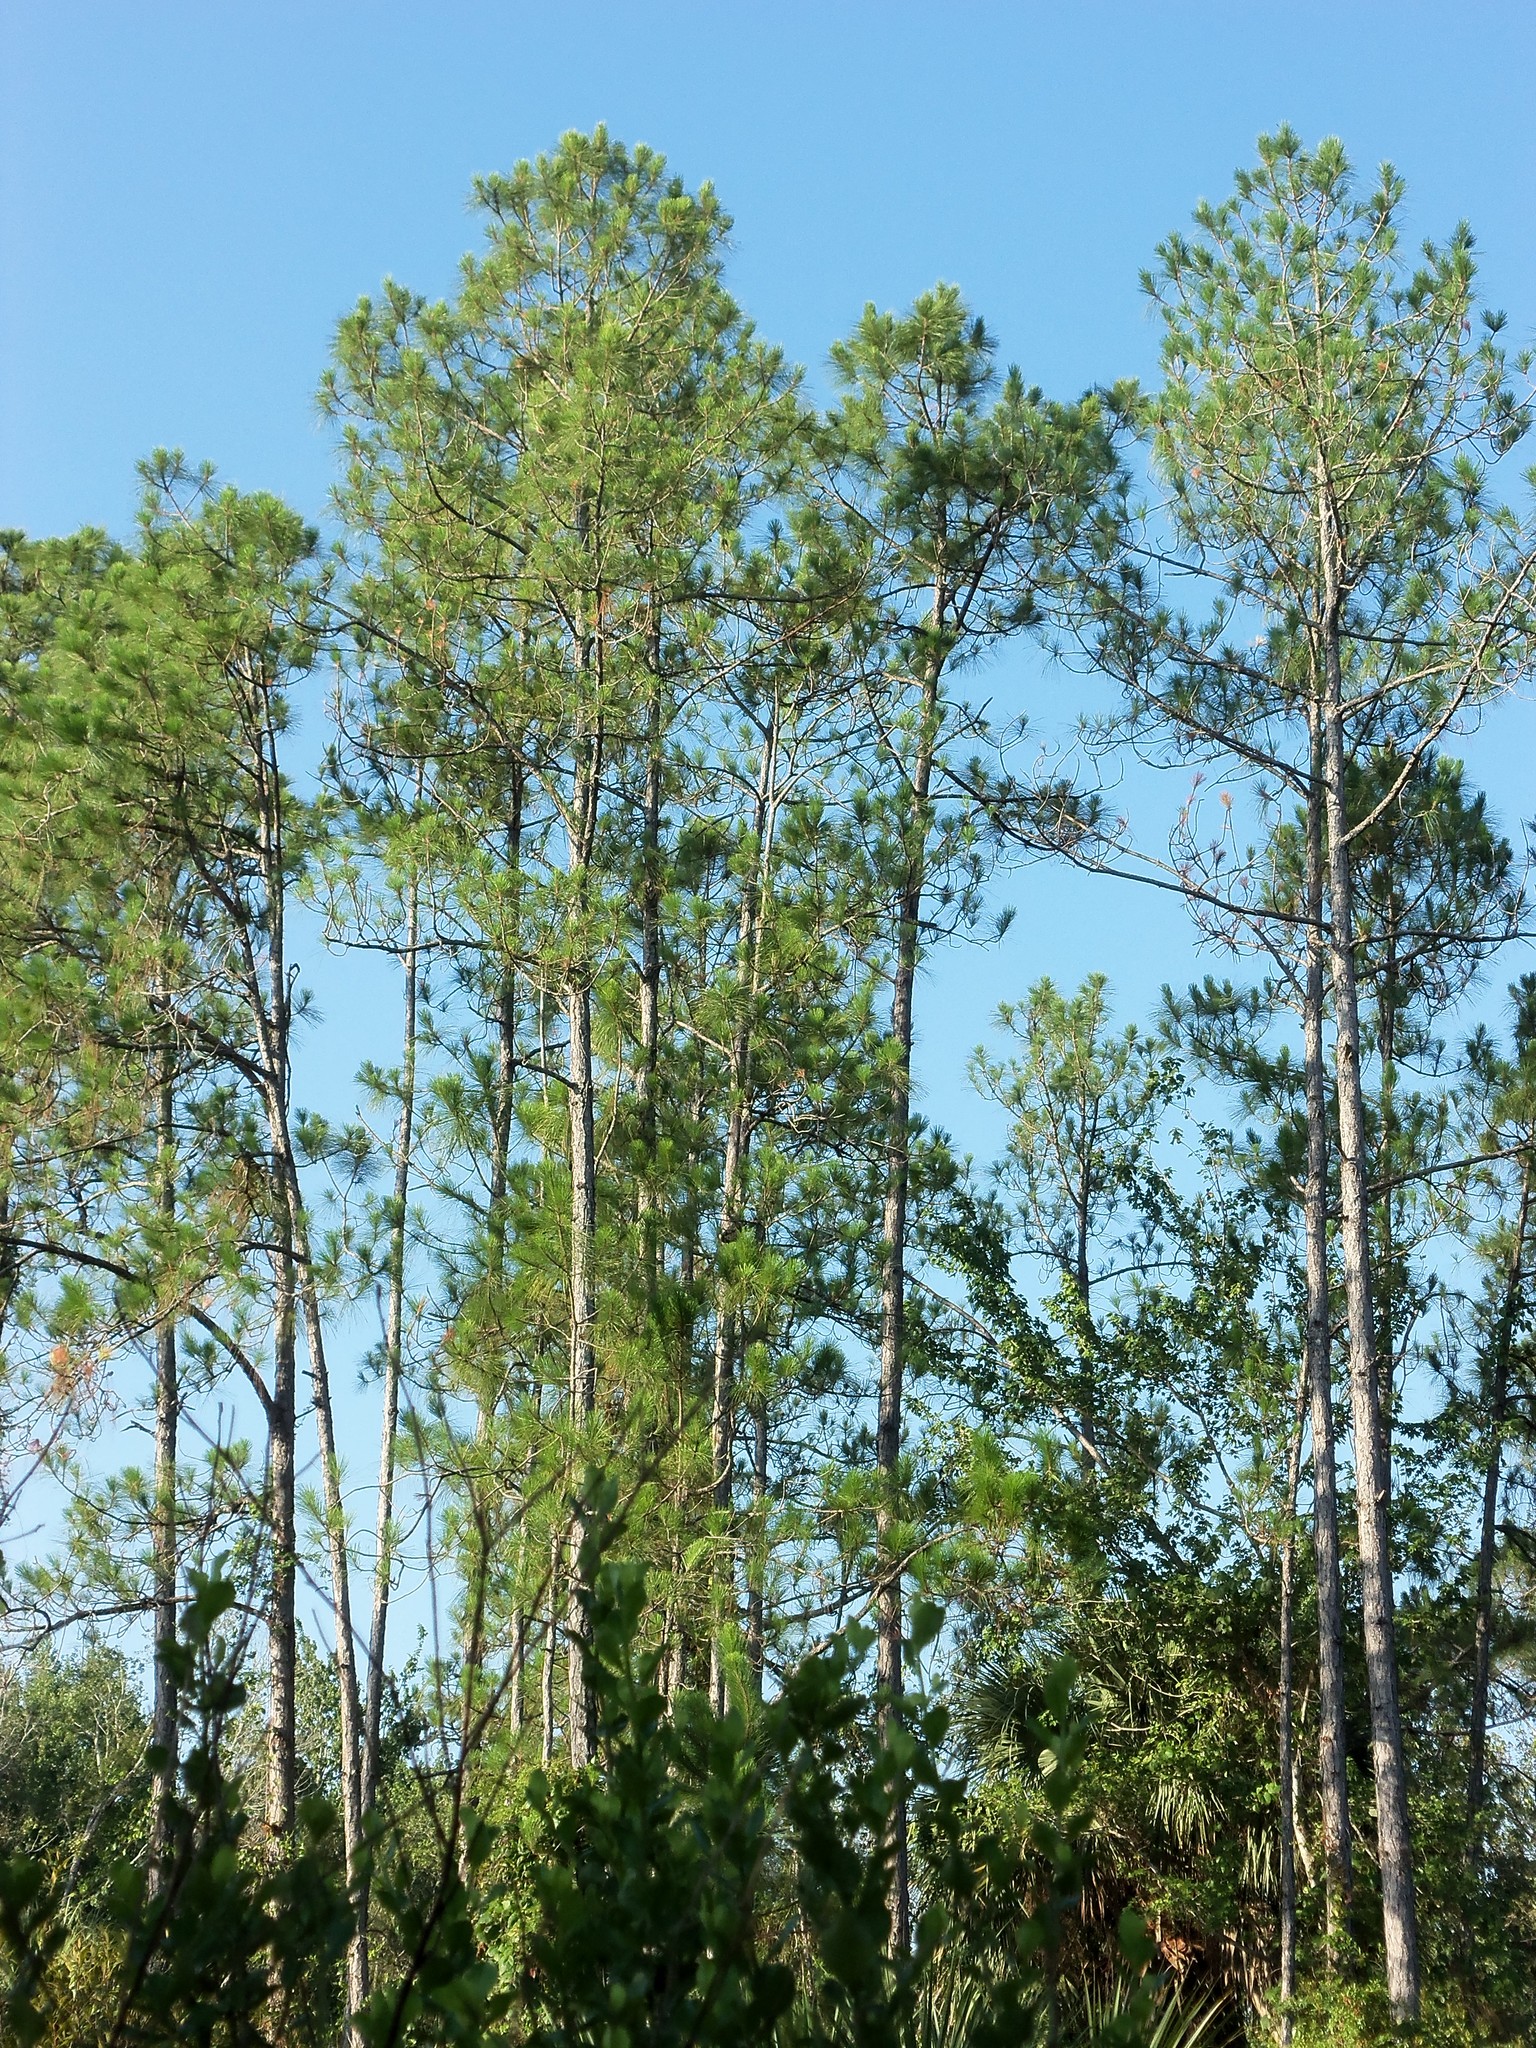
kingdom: Plantae
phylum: Tracheophyta
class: Pinopsida
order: Pinales
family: Pinaceae
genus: Pinus
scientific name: Pinus elliottii
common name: Slash pine
